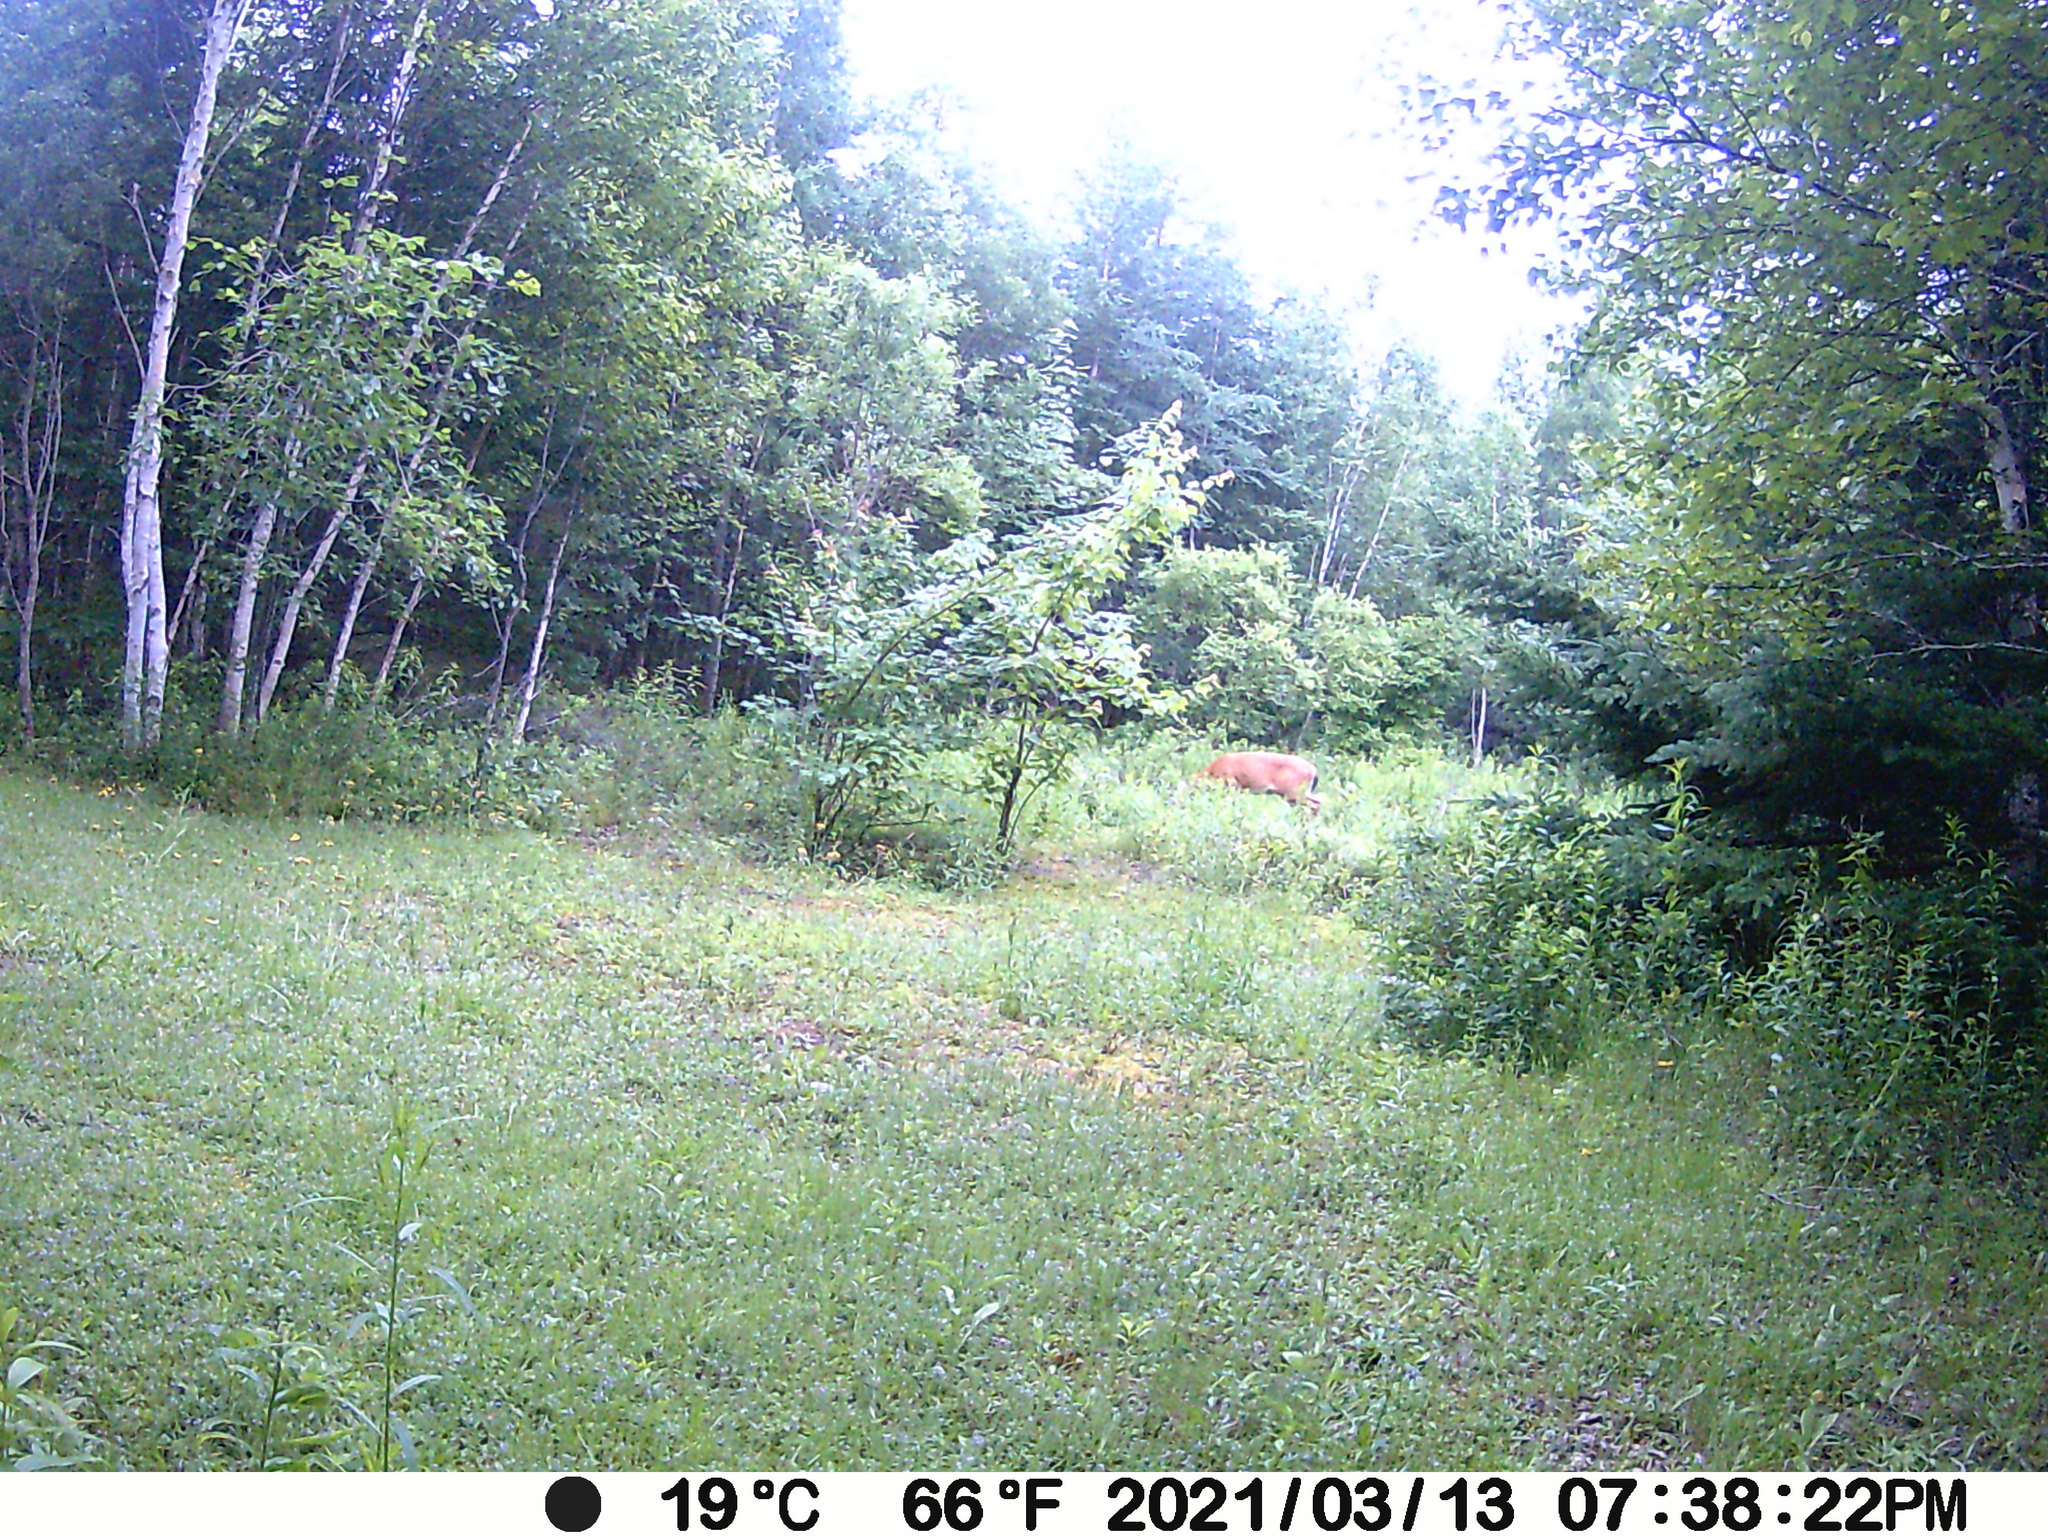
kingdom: Animalia
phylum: Chordata
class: Mammalia
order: Artiodactyla
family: Cervidae
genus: Odocoileus
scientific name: Odocoileus virginianus
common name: White-tailed deer
